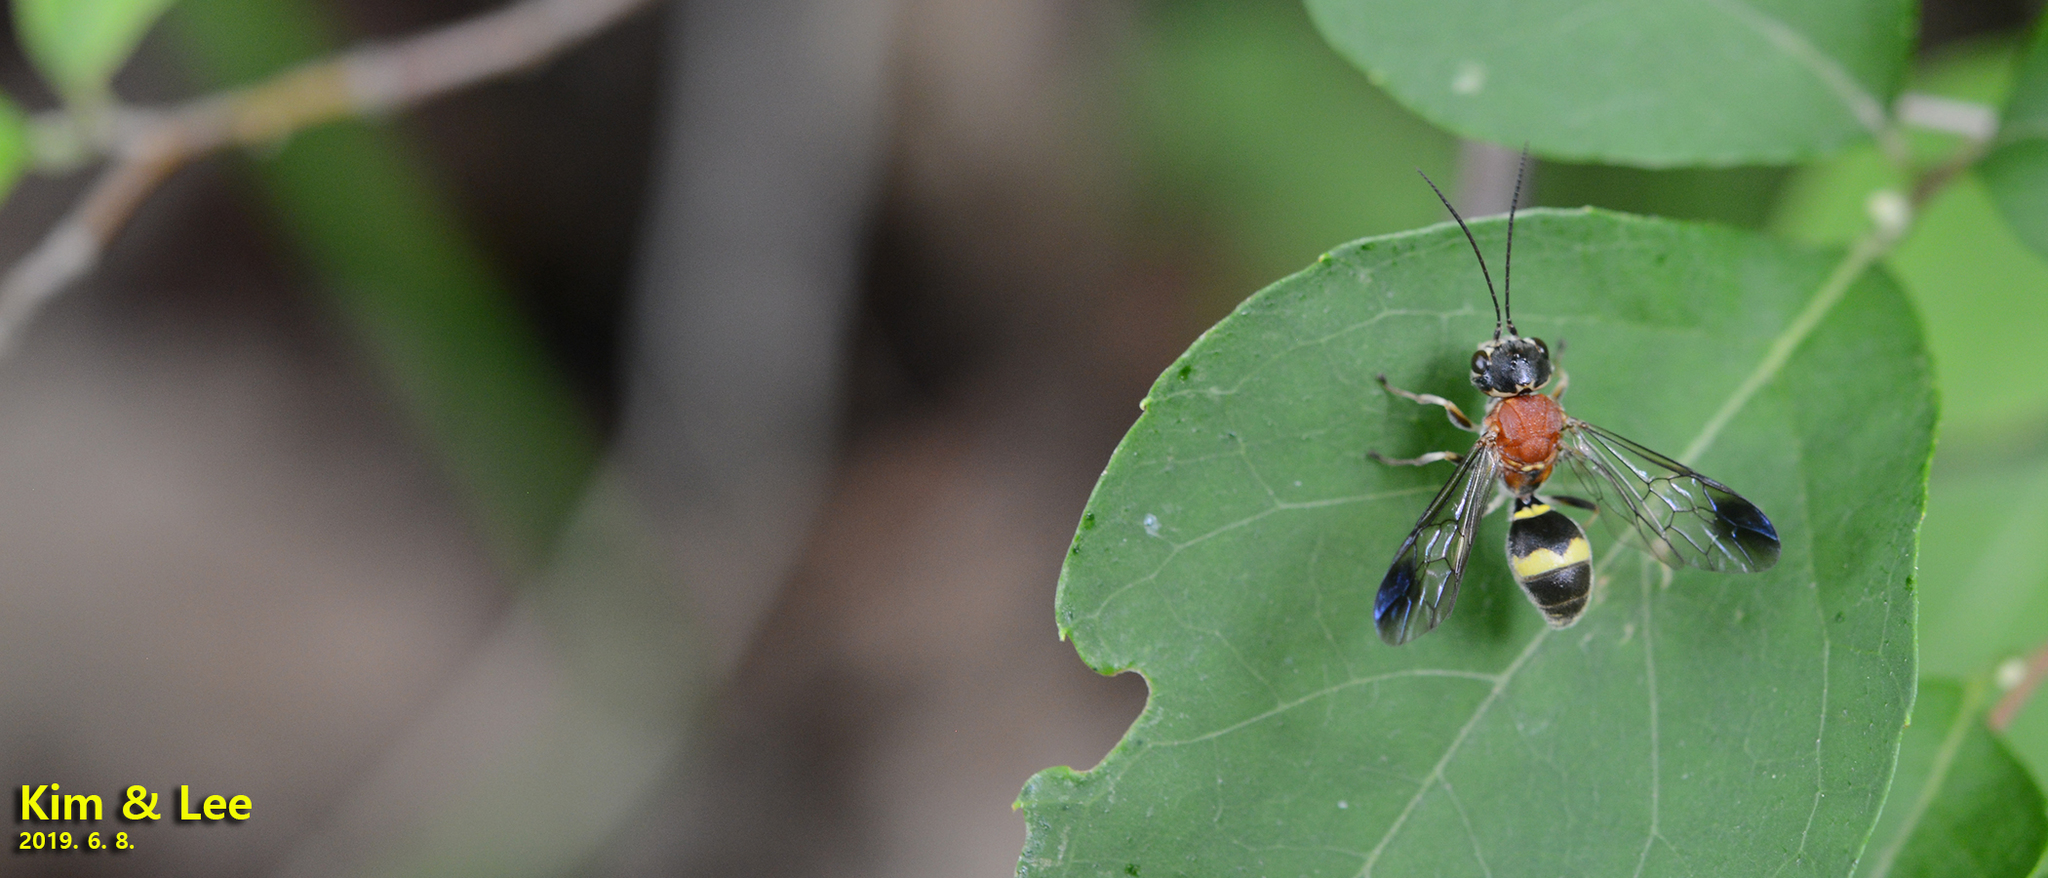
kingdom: Animalia
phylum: Arthropoda
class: Insecta
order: Hymenoptera
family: Trigonalidae
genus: Taeniogonalos
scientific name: Taeniogonalos fasciata
